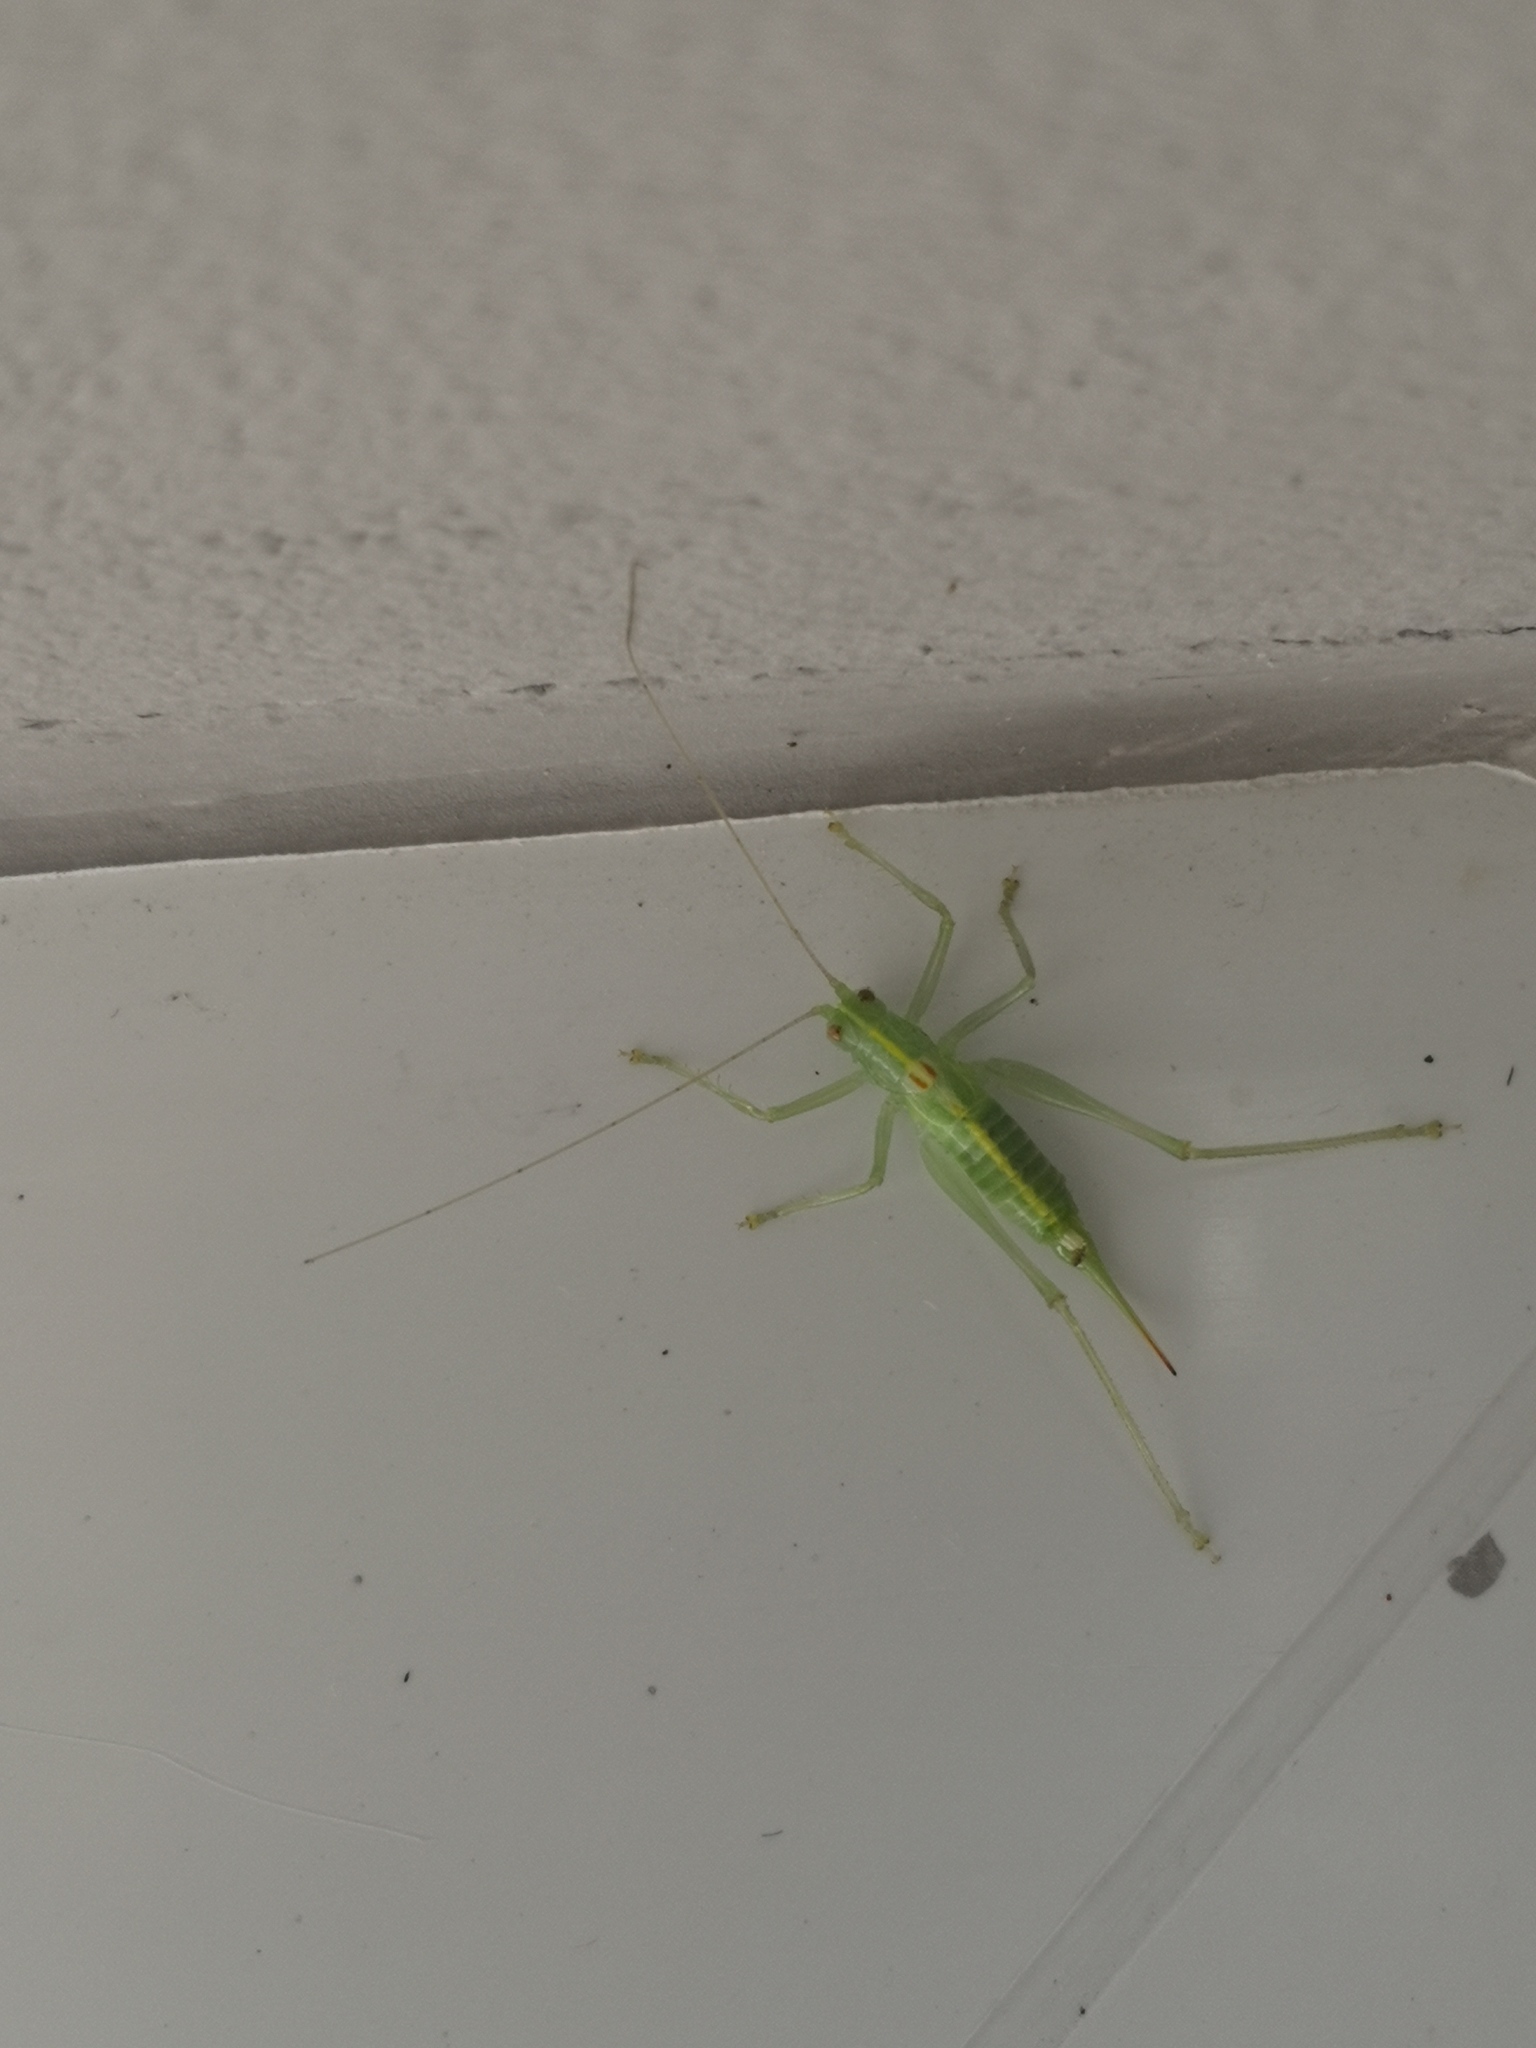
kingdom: Animalia
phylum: Arthropoda
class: Insecta
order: Orthoptera
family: Tettigoniidae
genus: Meconema
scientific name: Meconema meridionale
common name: Southern oak bush-cricket
